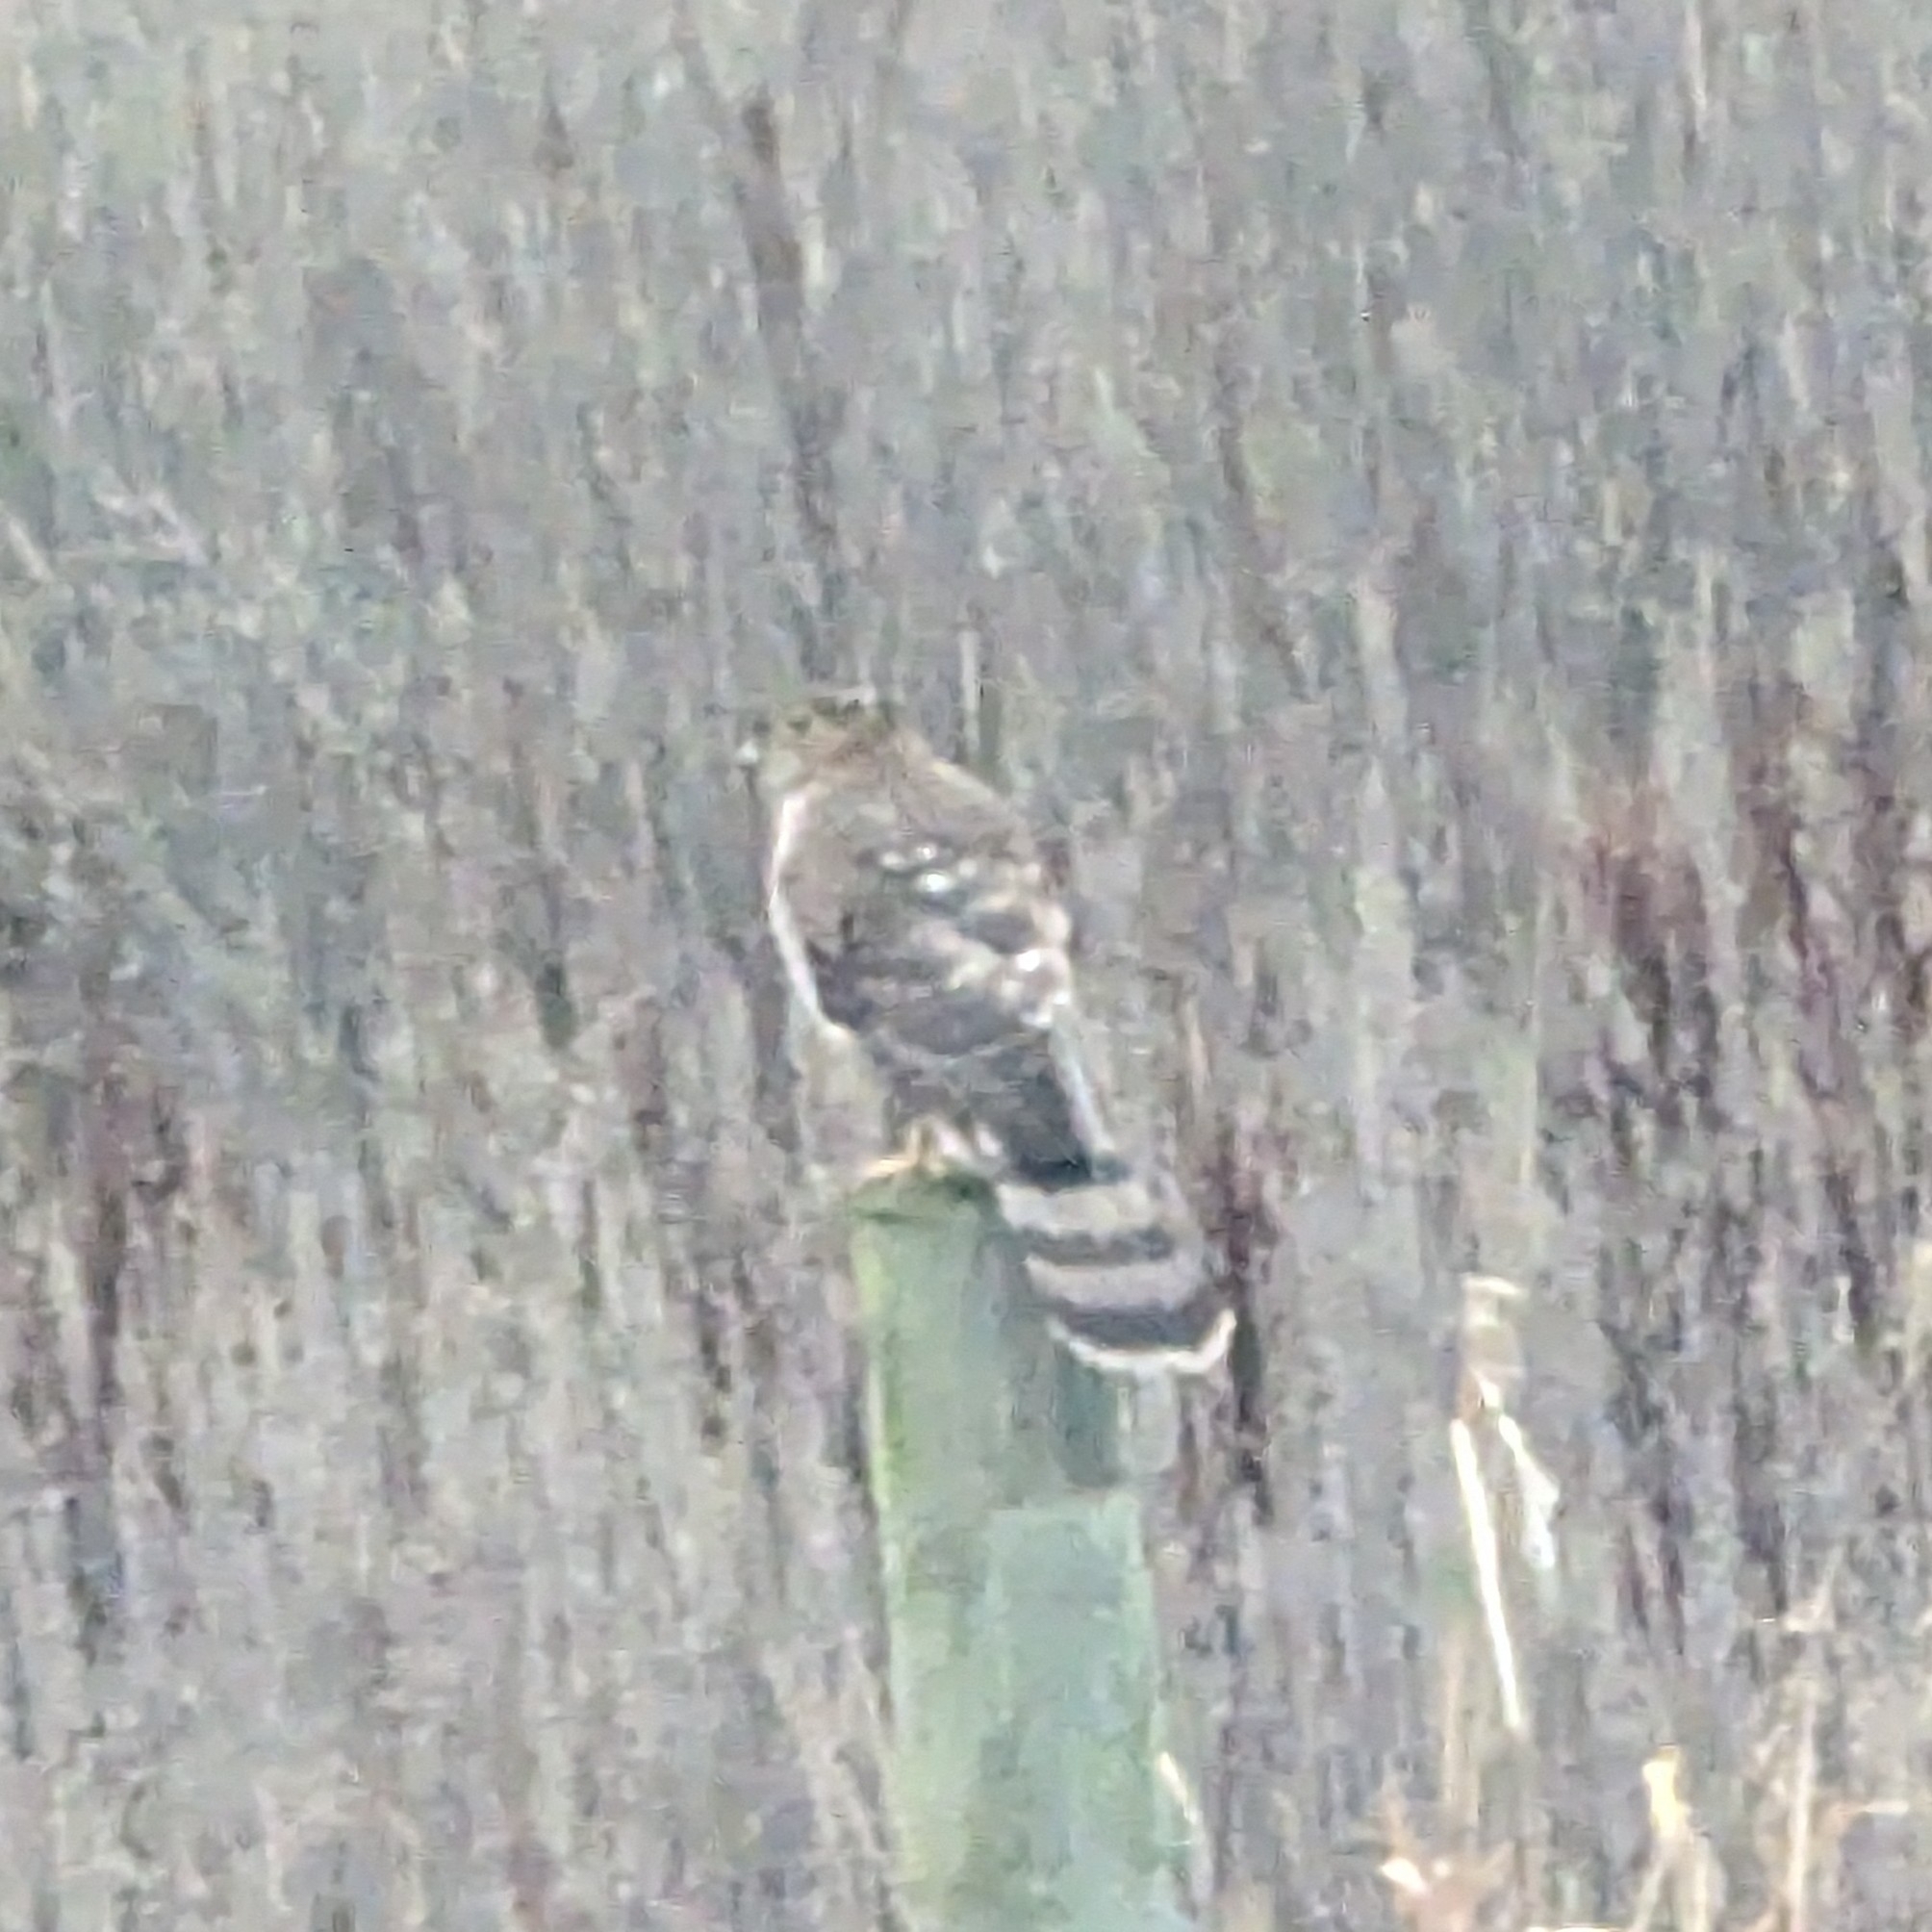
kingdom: Animalia
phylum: Chordata
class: Aves
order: Accipitriformes
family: Accipitridae
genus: Accipiter
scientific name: Accipiter cooperii
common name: Cooper's hawk
